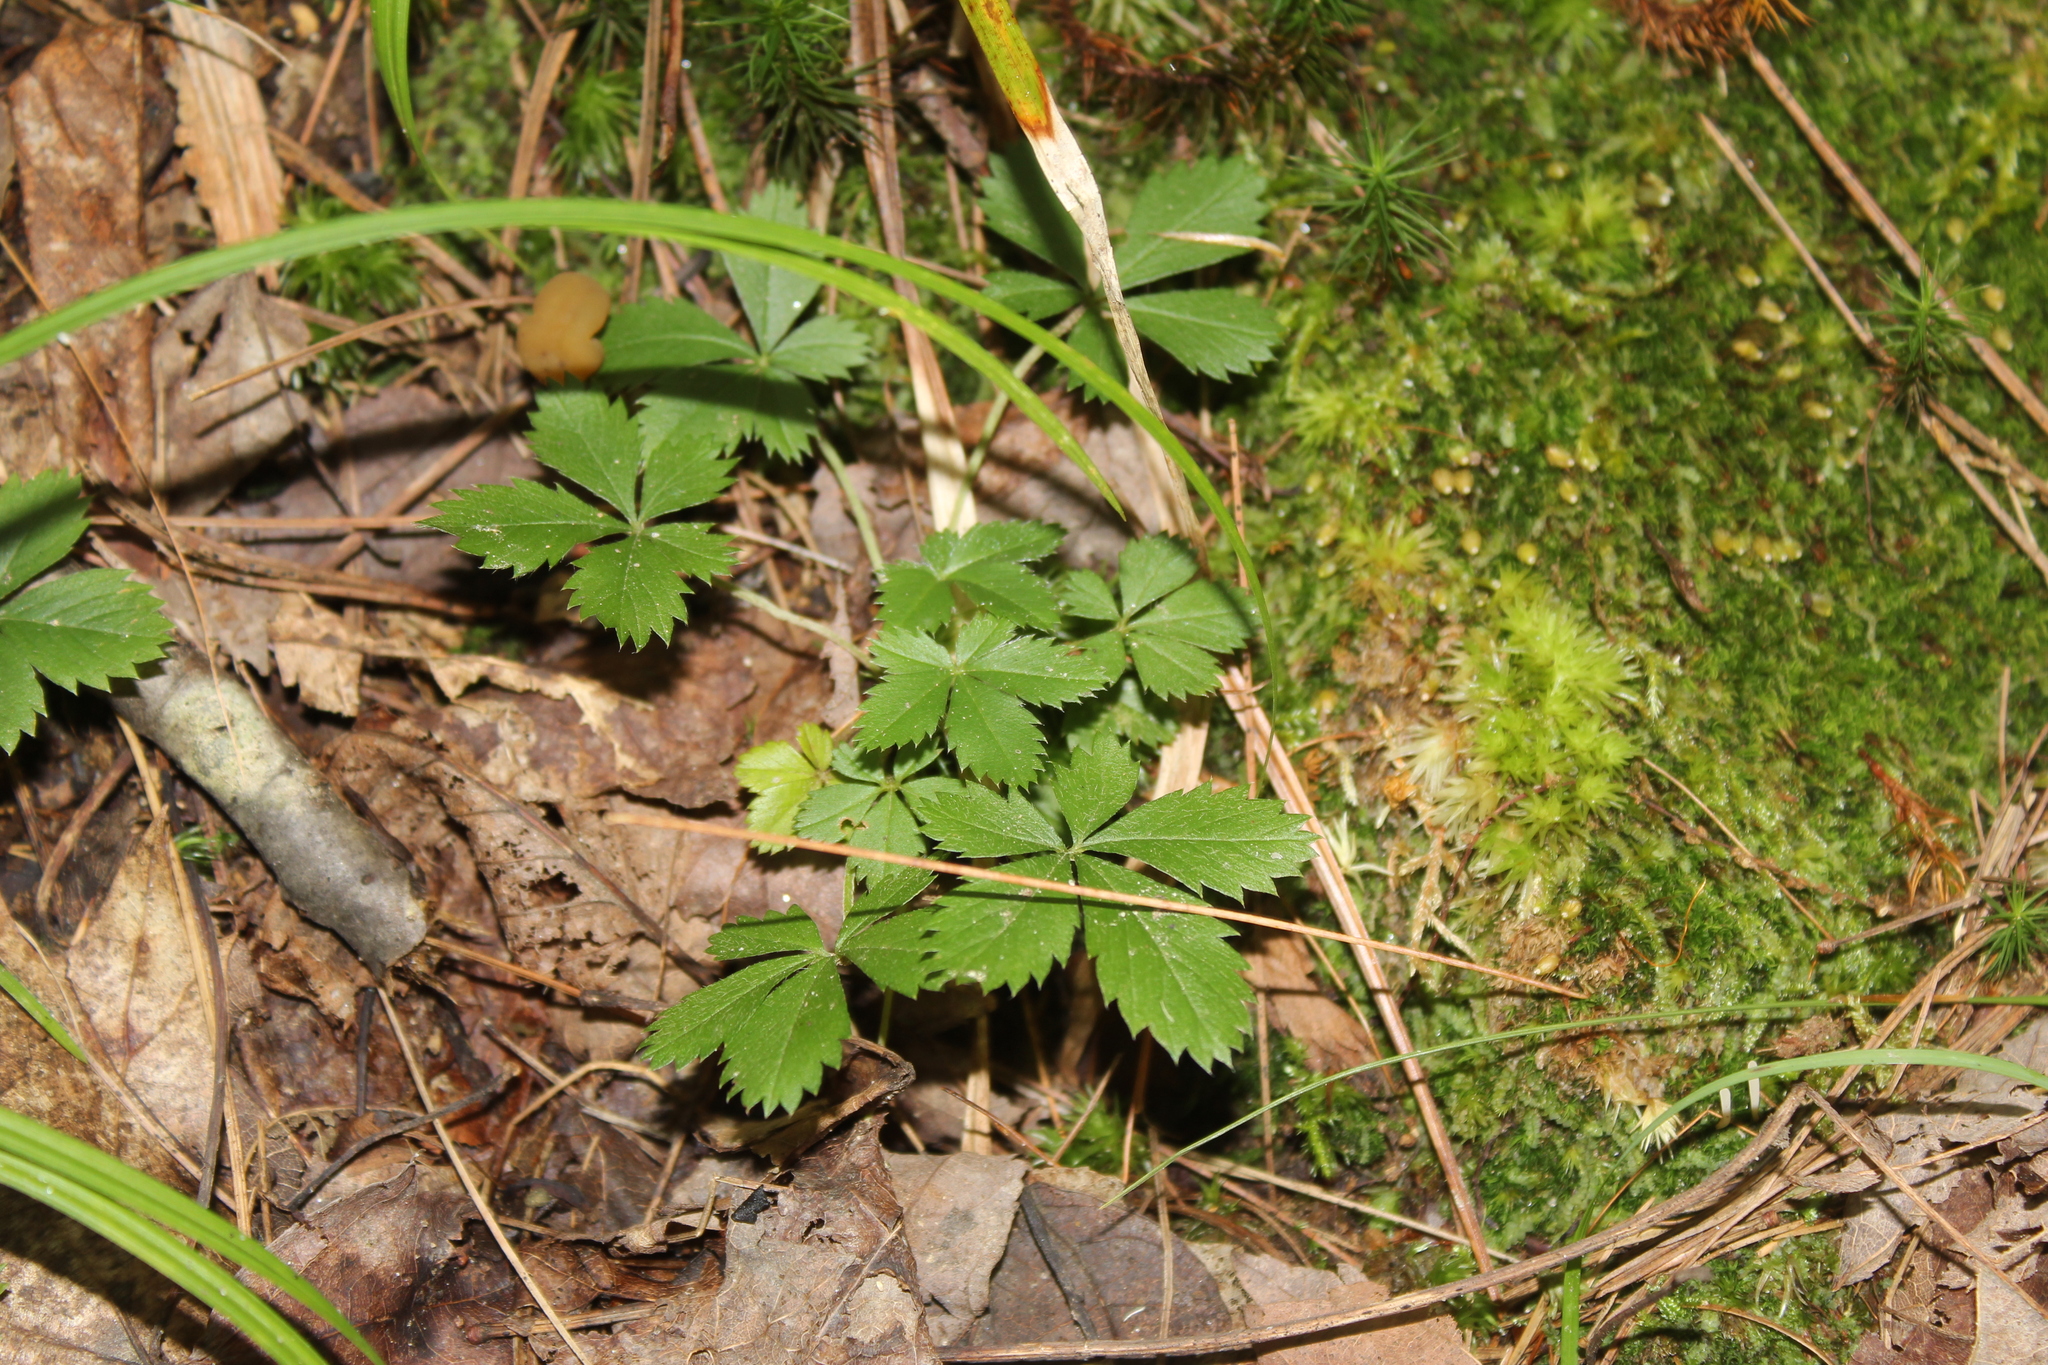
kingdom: Plantae
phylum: Tracheophyta
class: Magnoliopsida
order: Rosales
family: Rosaceae
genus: Potentilla
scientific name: Potentilla canadensis
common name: Canada cinquefoil
